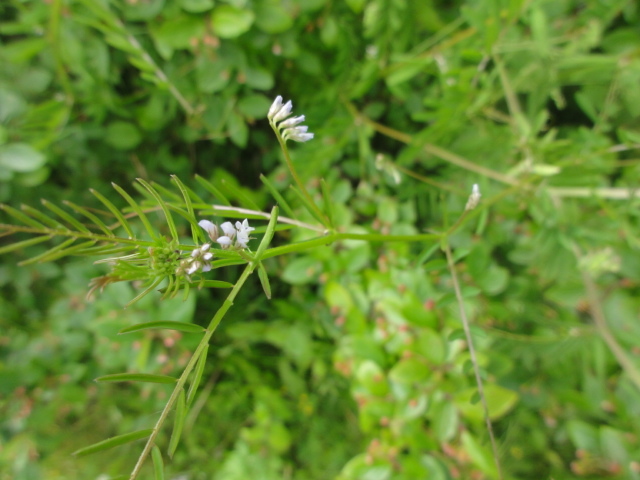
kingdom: Plantae
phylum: Tracheophyta
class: Magnoliopsida
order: Fabales
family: Fabaceae
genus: Vicia
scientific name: Vicia hirsuta
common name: Tiny vetch
